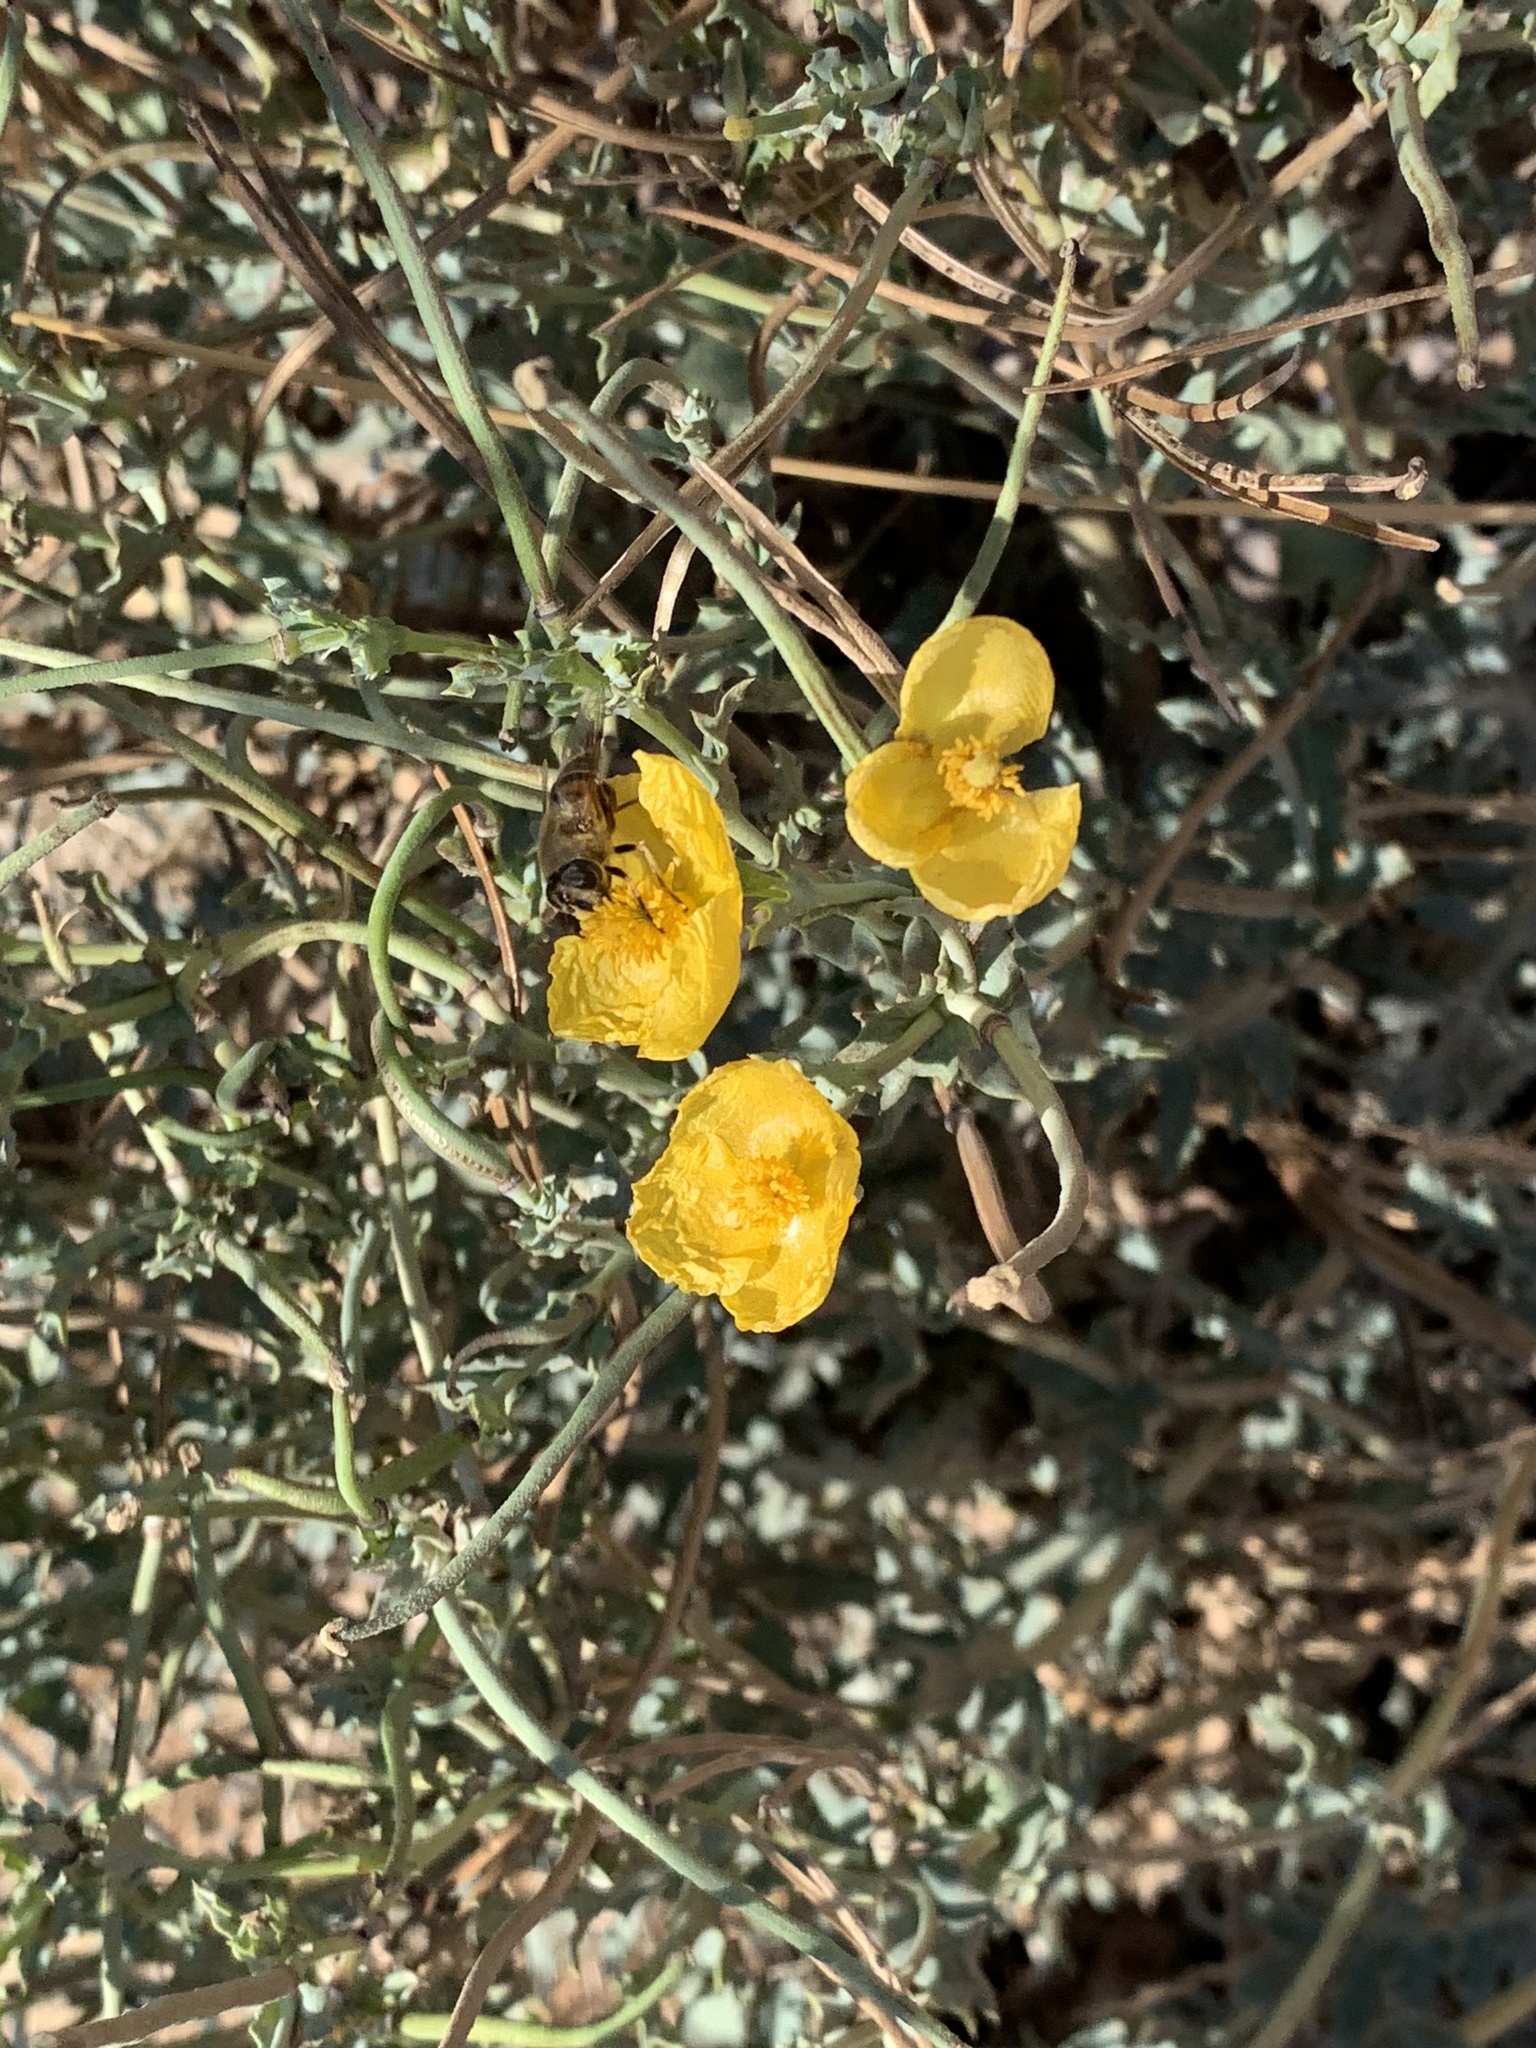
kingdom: Plantae
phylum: Tracheophyta
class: Magnoliopsida
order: Ranunculales
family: Papaveraceae
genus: Glaucium
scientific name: Glaucium flavum
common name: Yellow horned-poppy
